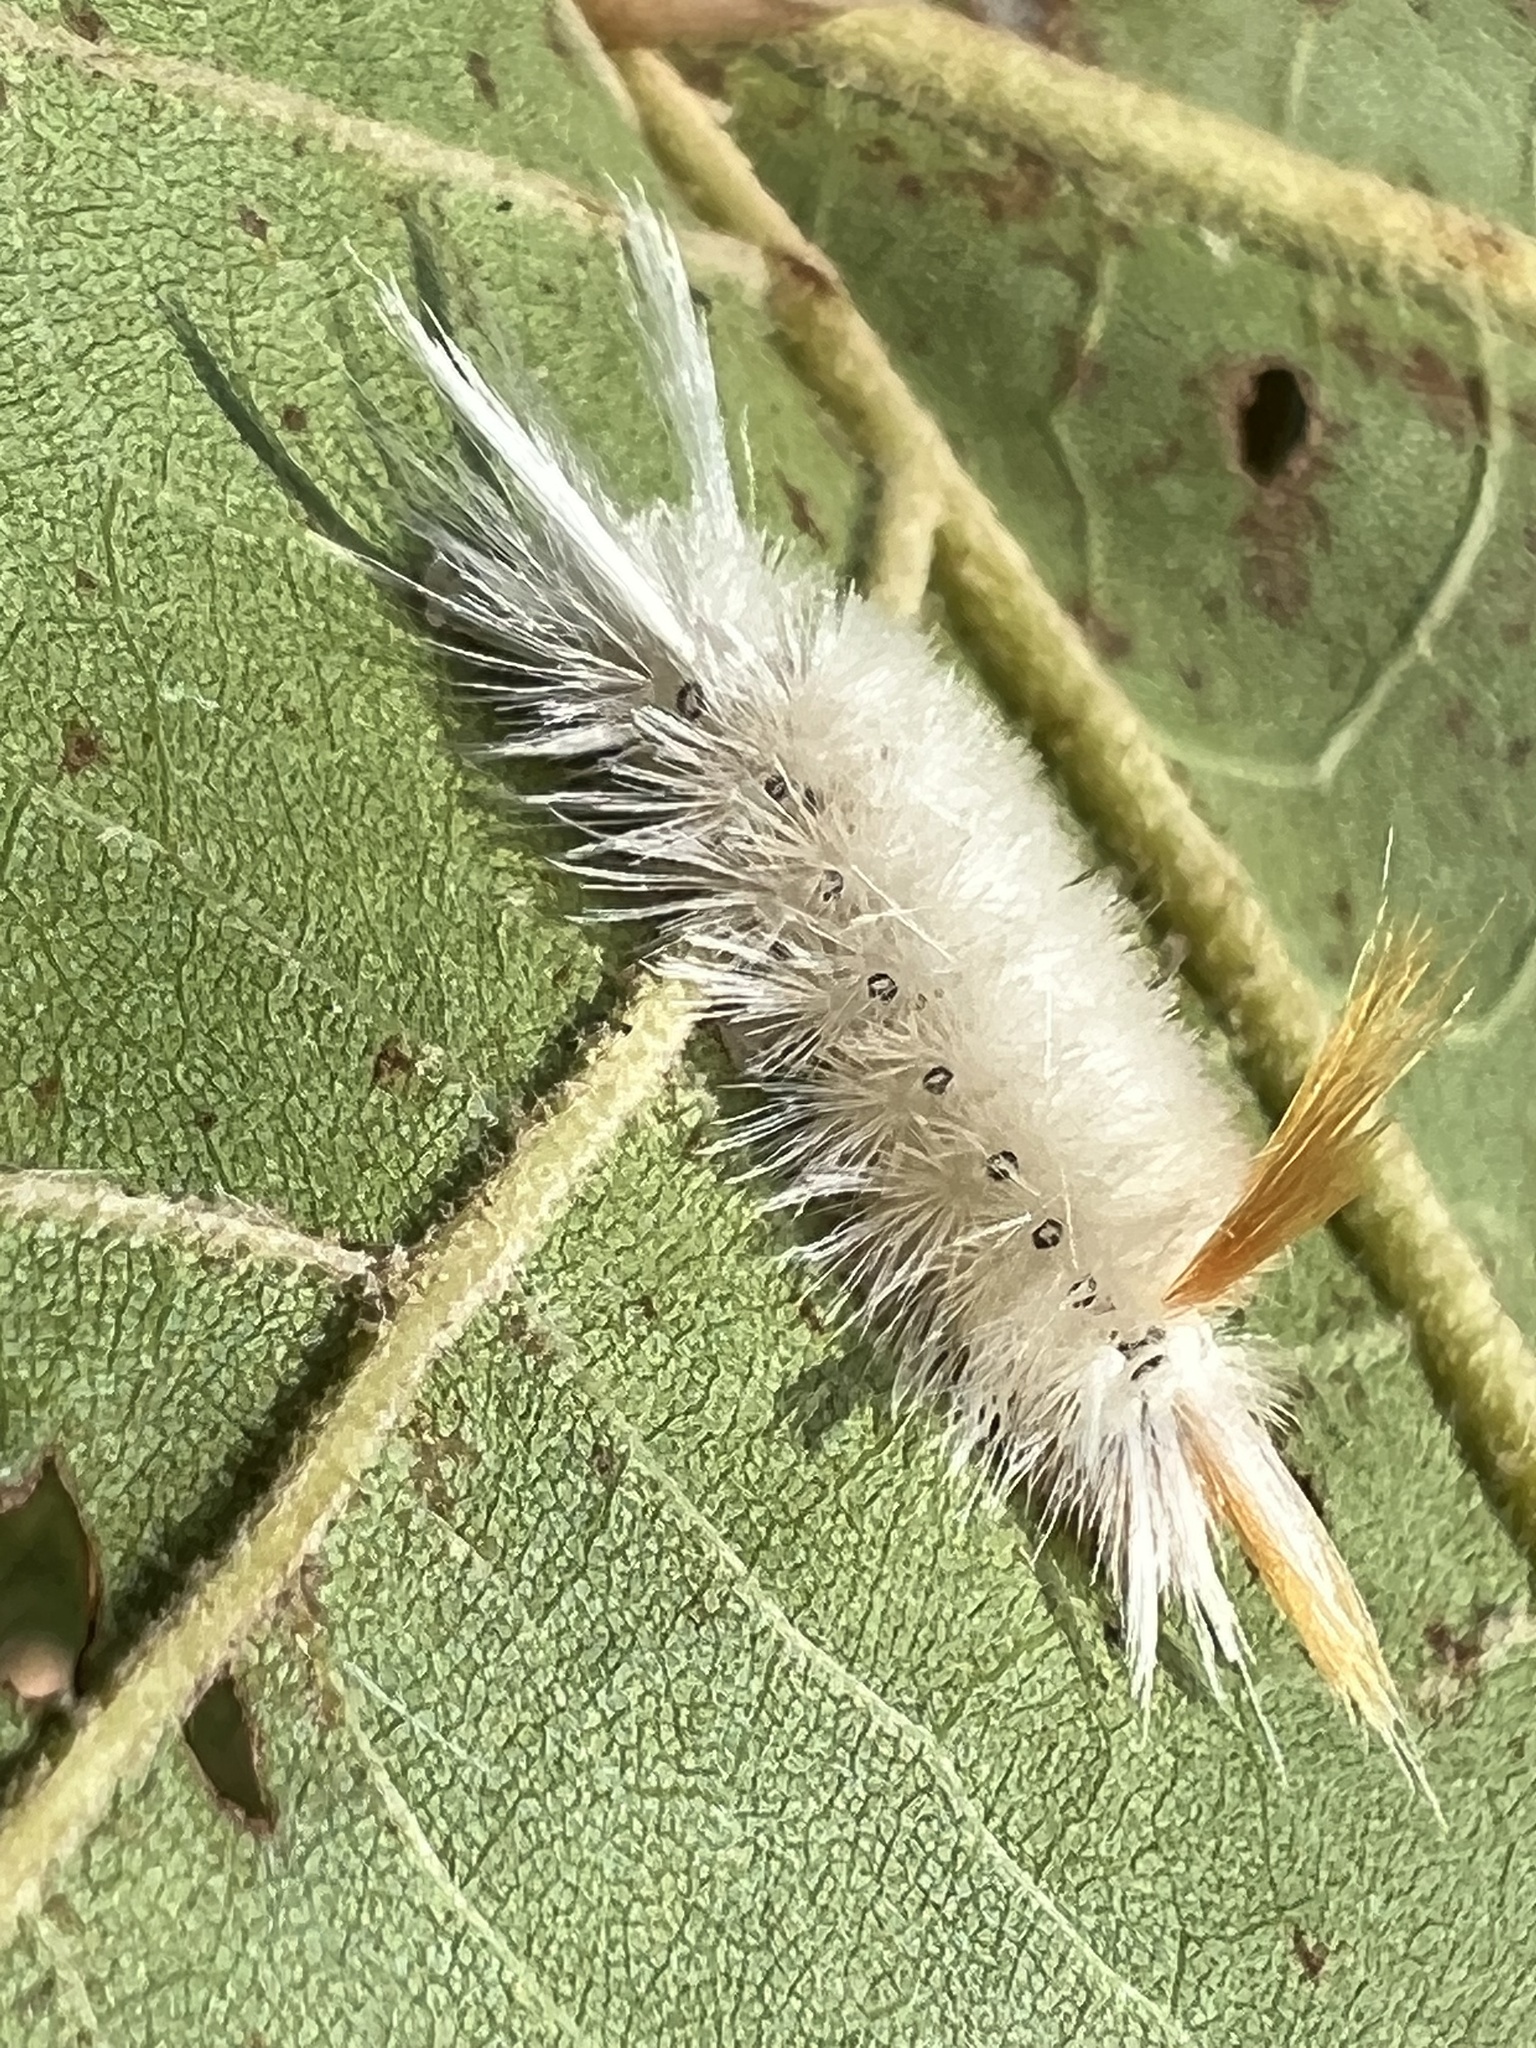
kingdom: Animalia
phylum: Arthropoda
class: Insecta
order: Lepidoptera
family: Erebidae
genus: Halysidota
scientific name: Halysidota harrisii
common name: Sycamore tussock moth
